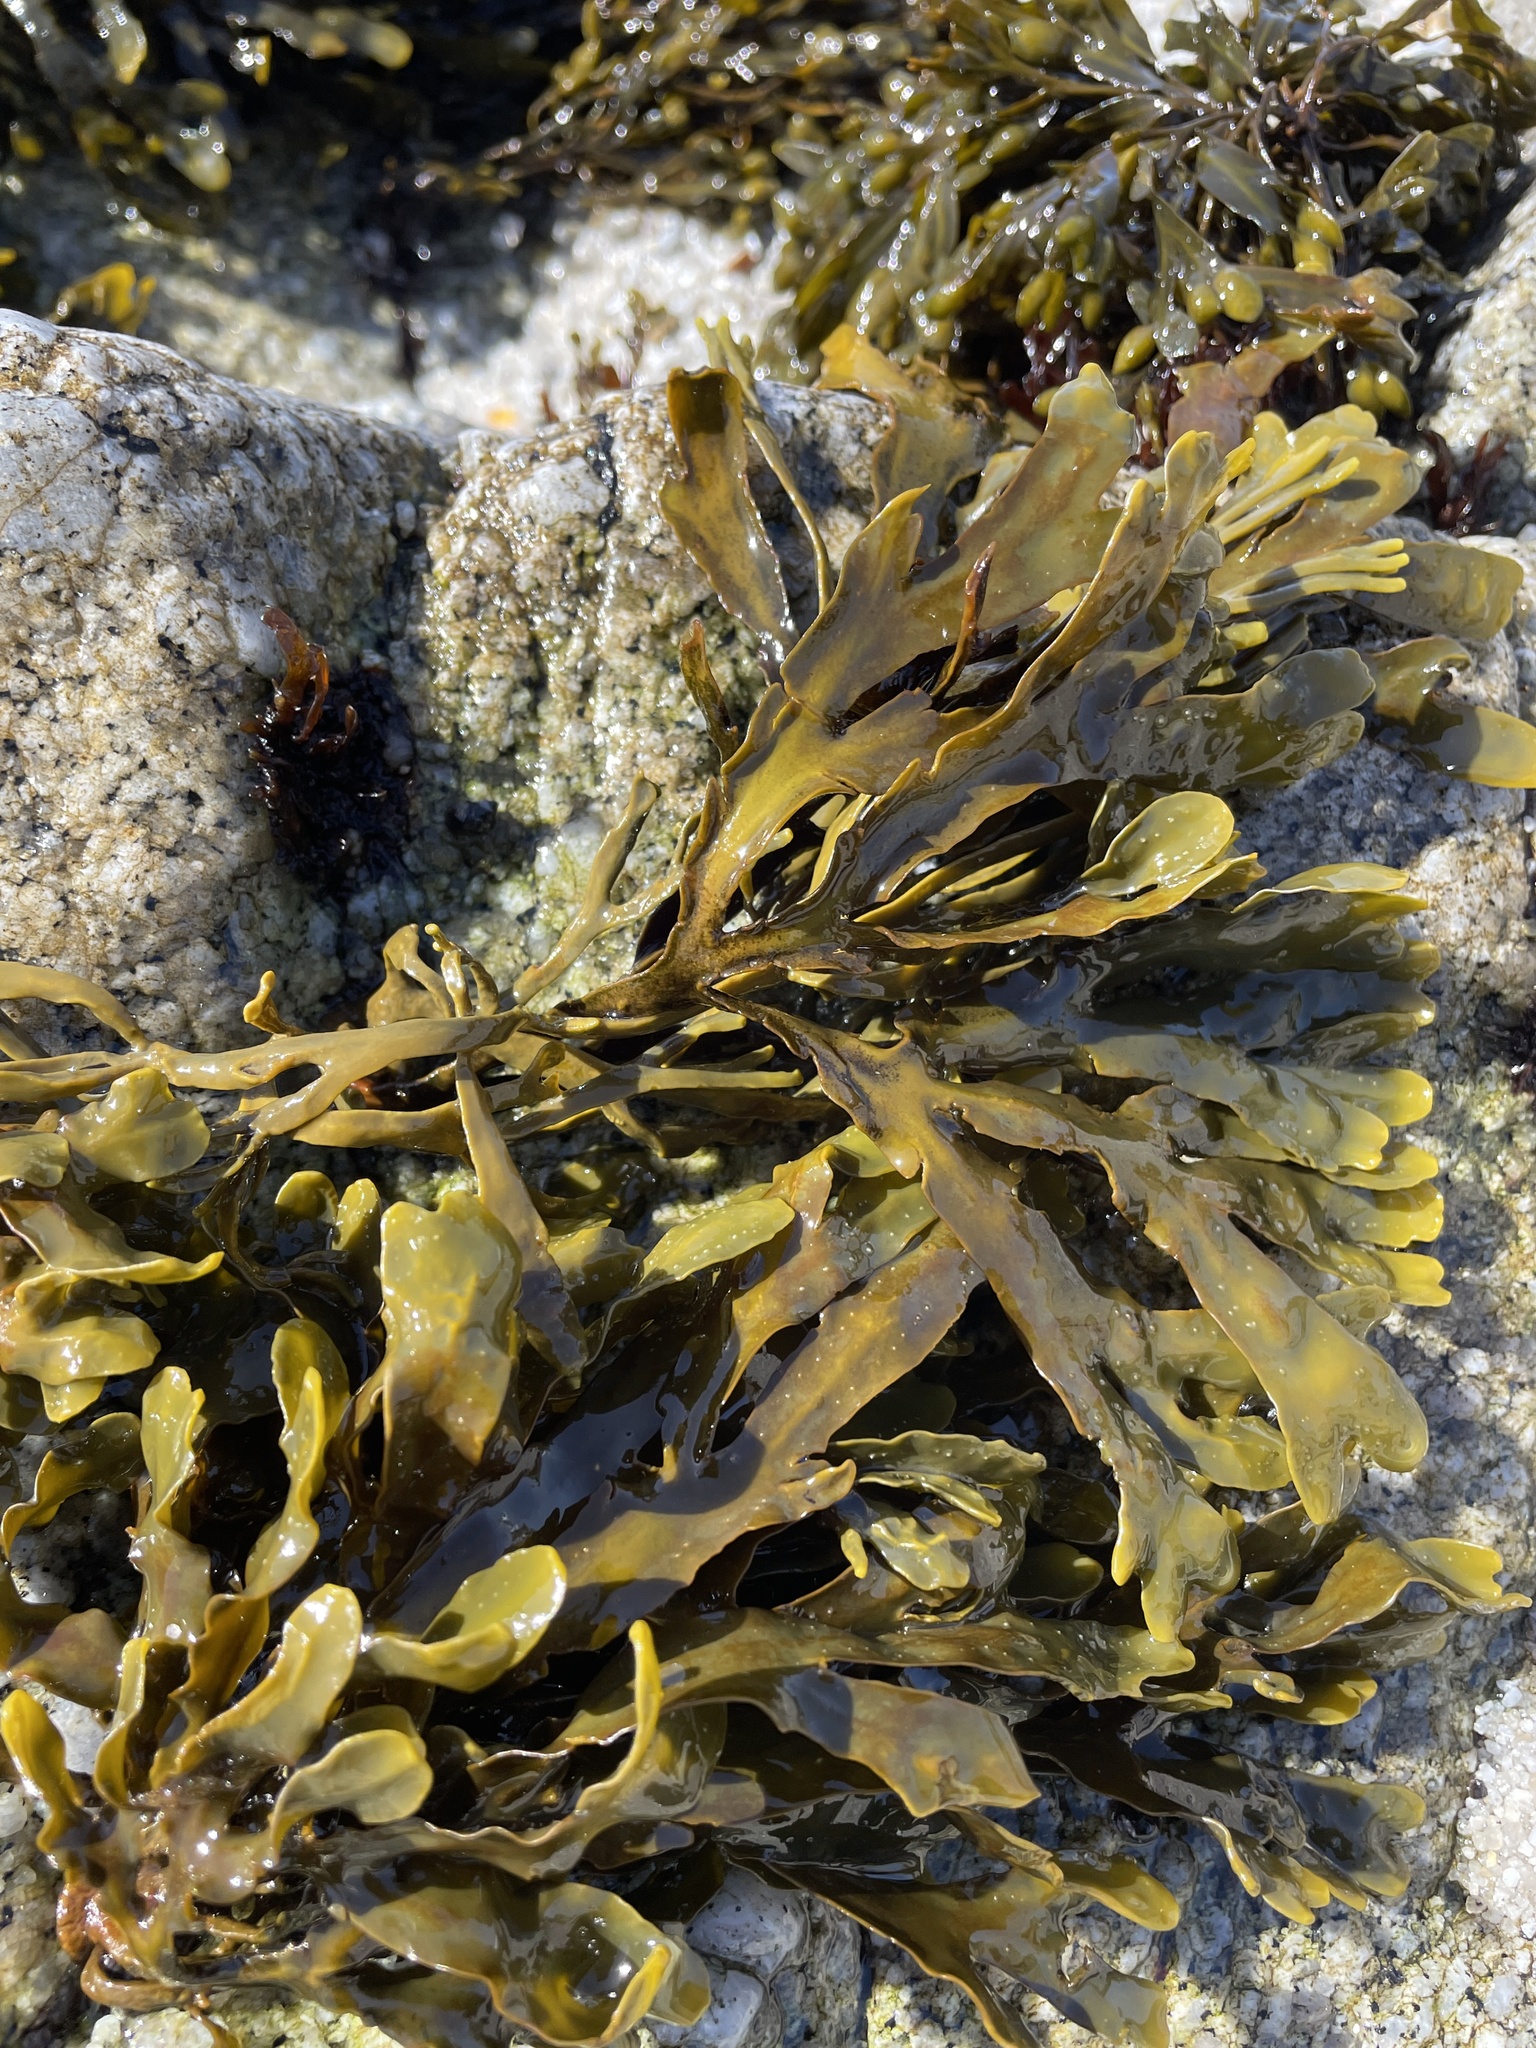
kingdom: Chromista
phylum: Ochrophyta
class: Phaeophyceae
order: Fucales
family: Fucaceae
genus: Pelvetiopsis
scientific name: Pelvetiopsis
